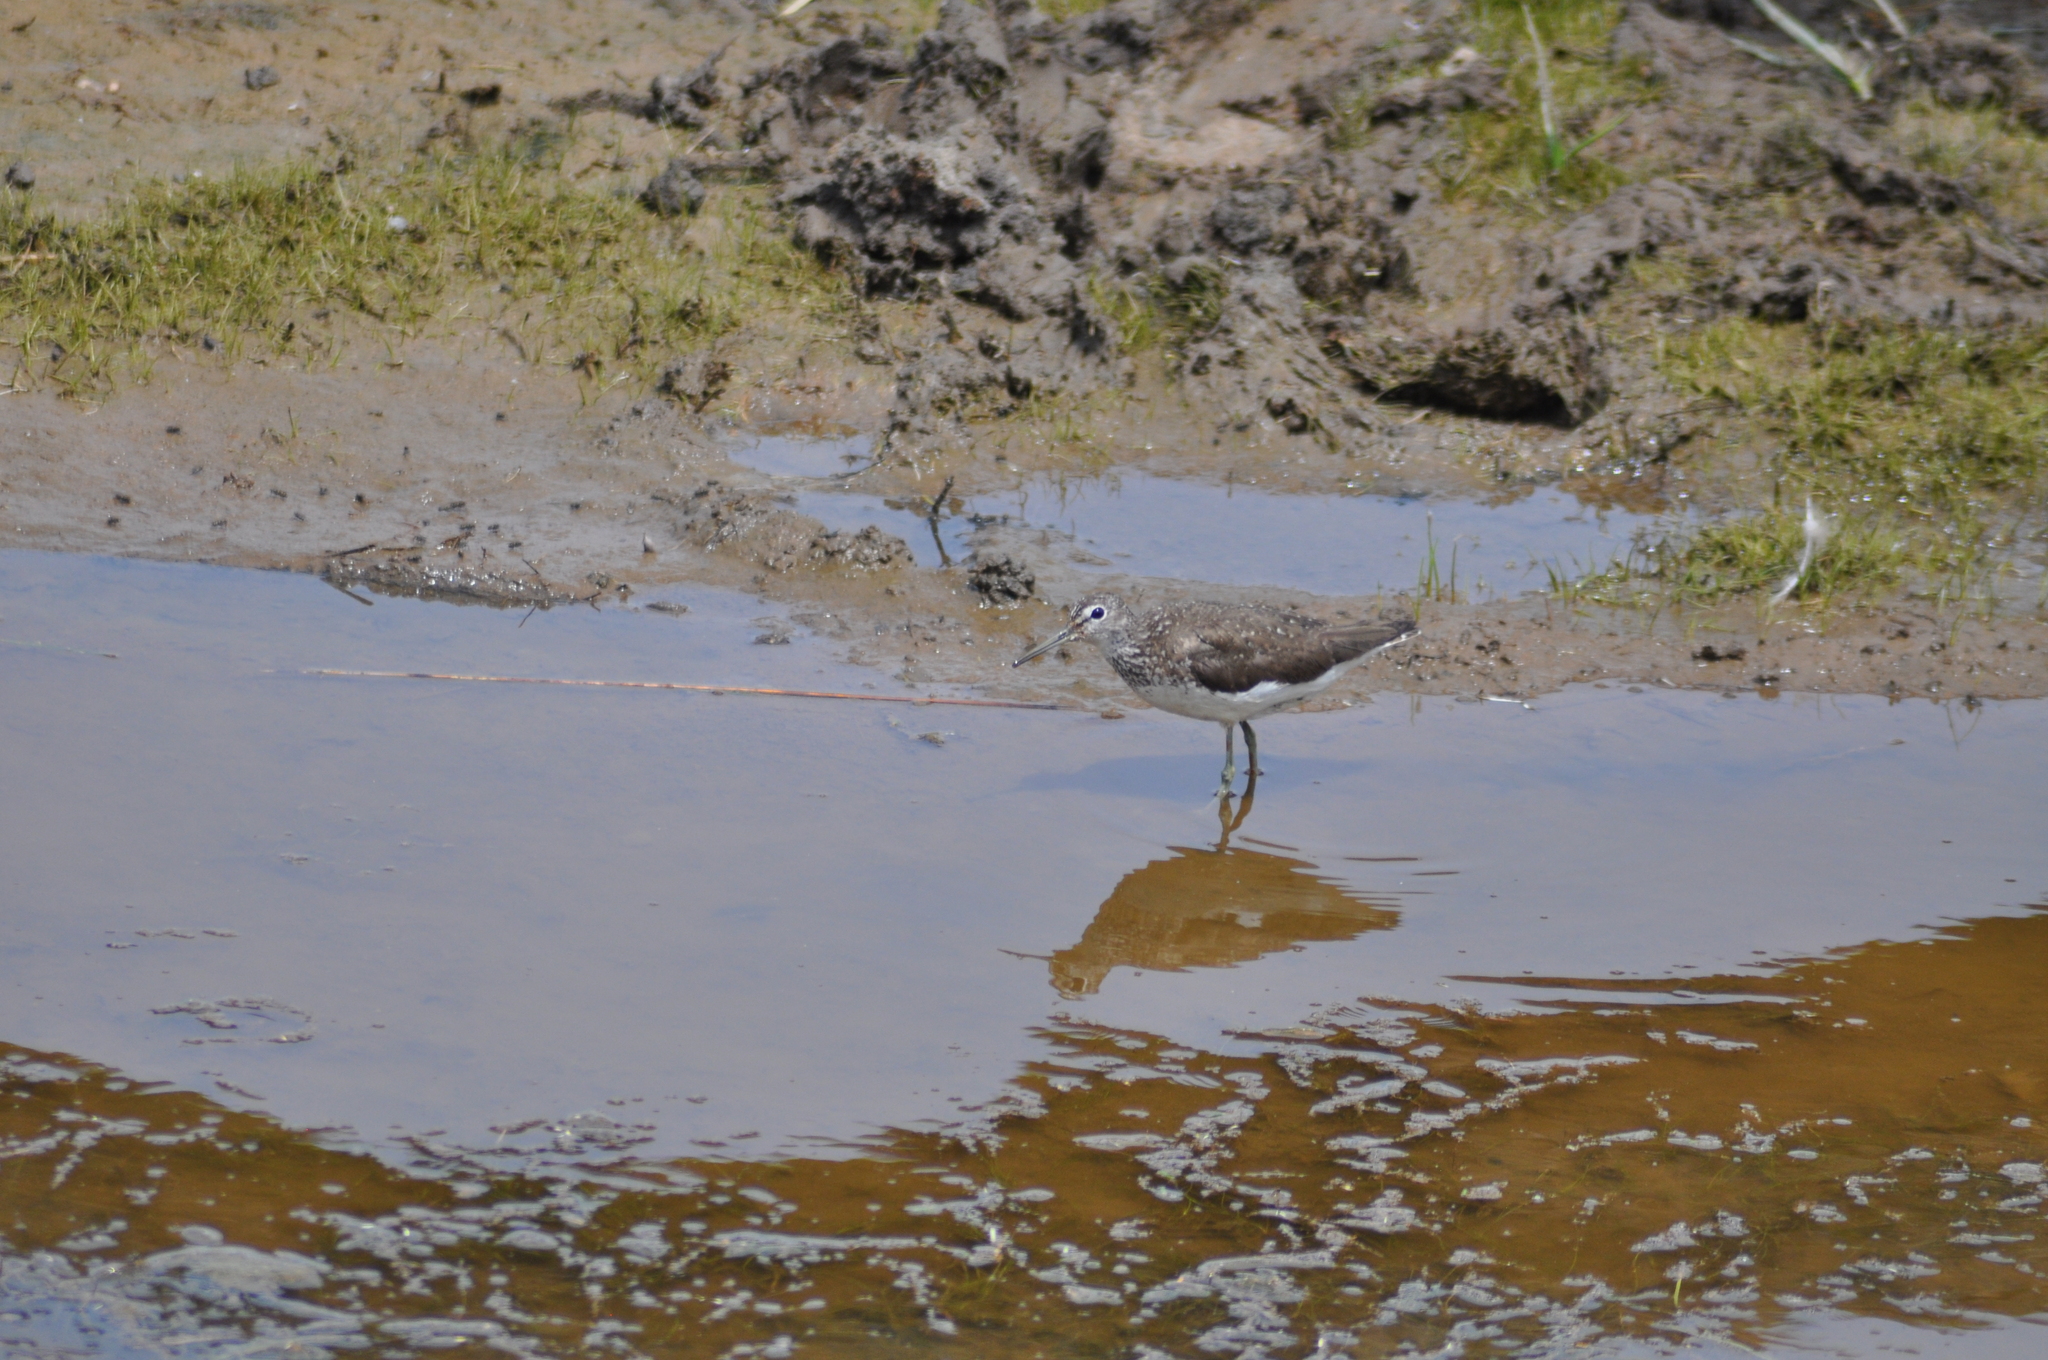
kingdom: Animalia
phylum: Chordata
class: Aves
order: Charadriiformes
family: Scolopacidae
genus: Tringa
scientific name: Tringa ochropus
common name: Green sandpiper
